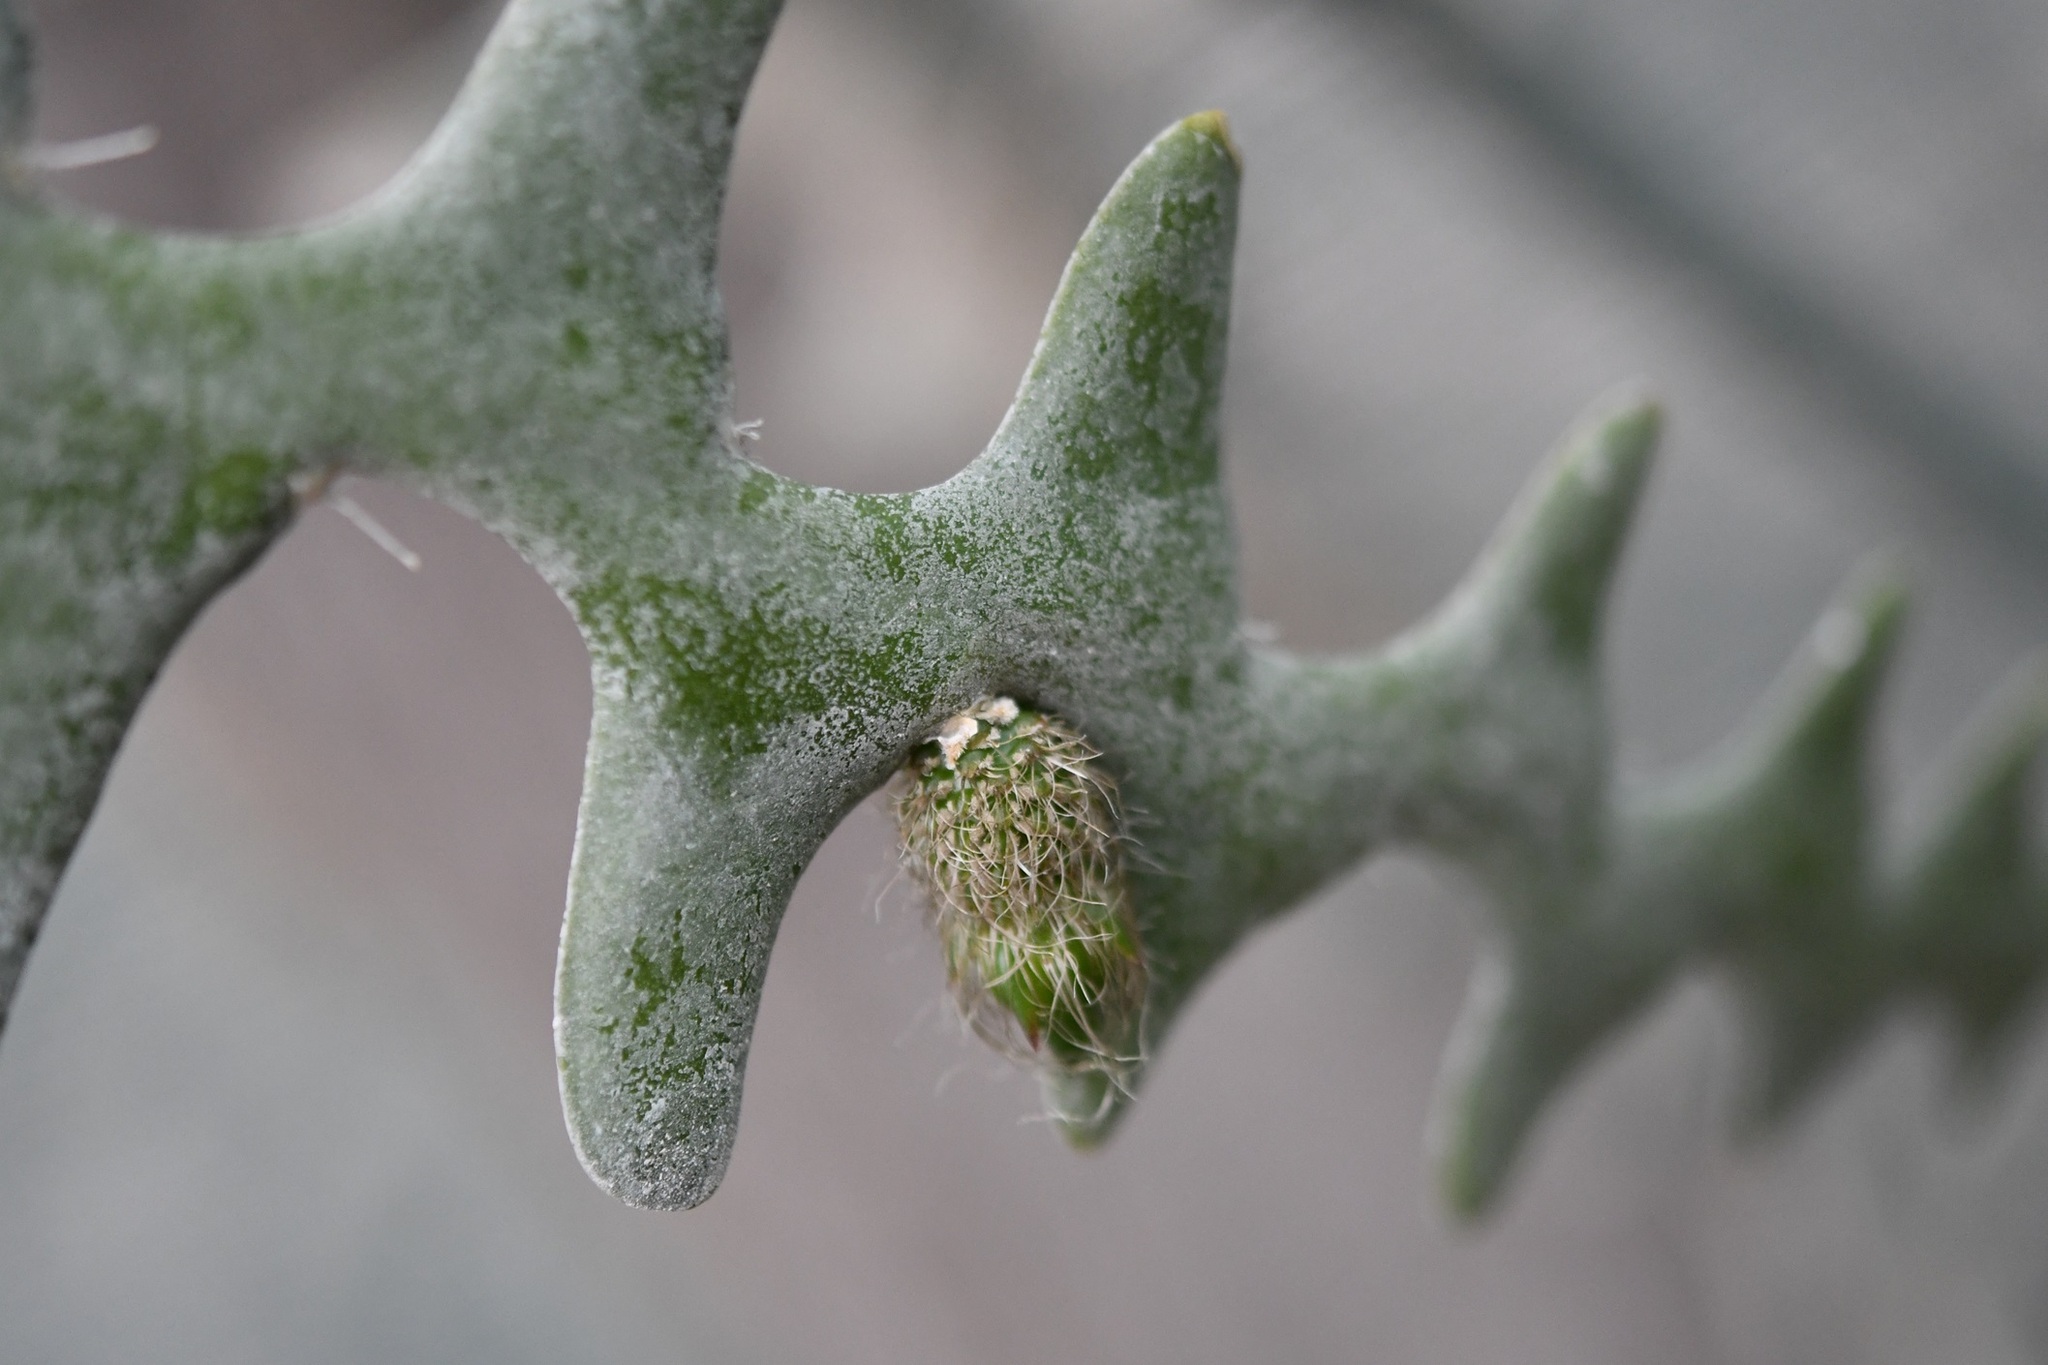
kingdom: Plantae
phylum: Tracheophyta
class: Magnoliopsida
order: Caryophyllales
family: Cactaceae
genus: Selenicereus
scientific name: Selenicereus anthonyanus
